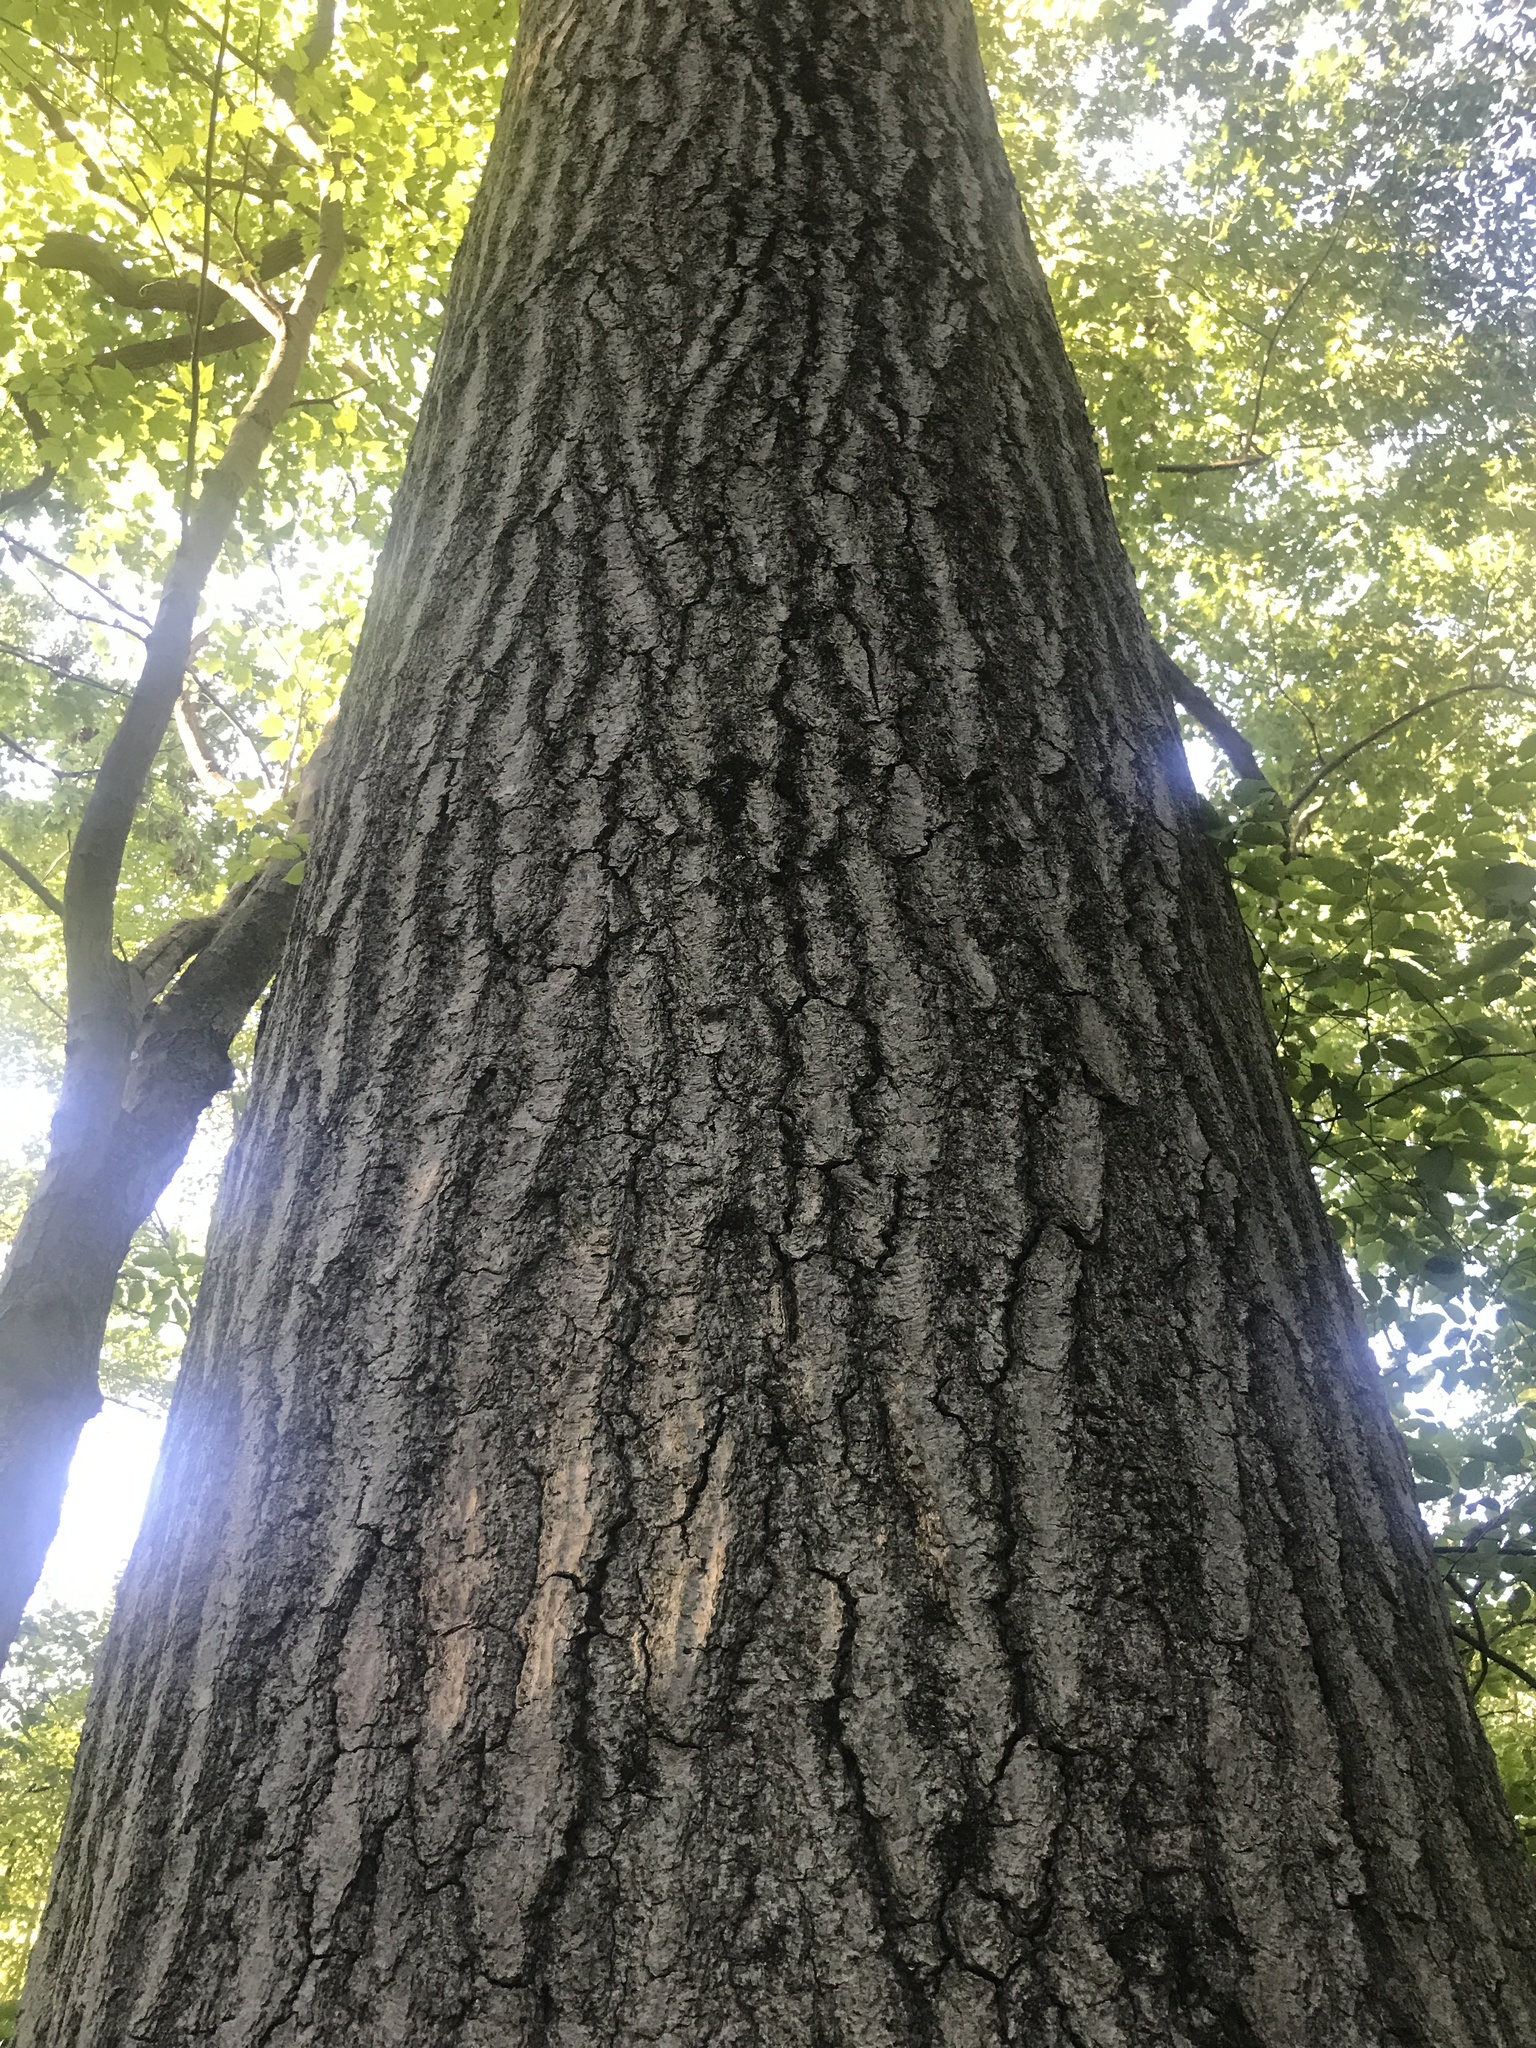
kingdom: Plantae
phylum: Tracheophyta
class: Magnoliopsida
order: Fagales
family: Fagaceae
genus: Quercus
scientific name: Quercus rubra
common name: Red oak
